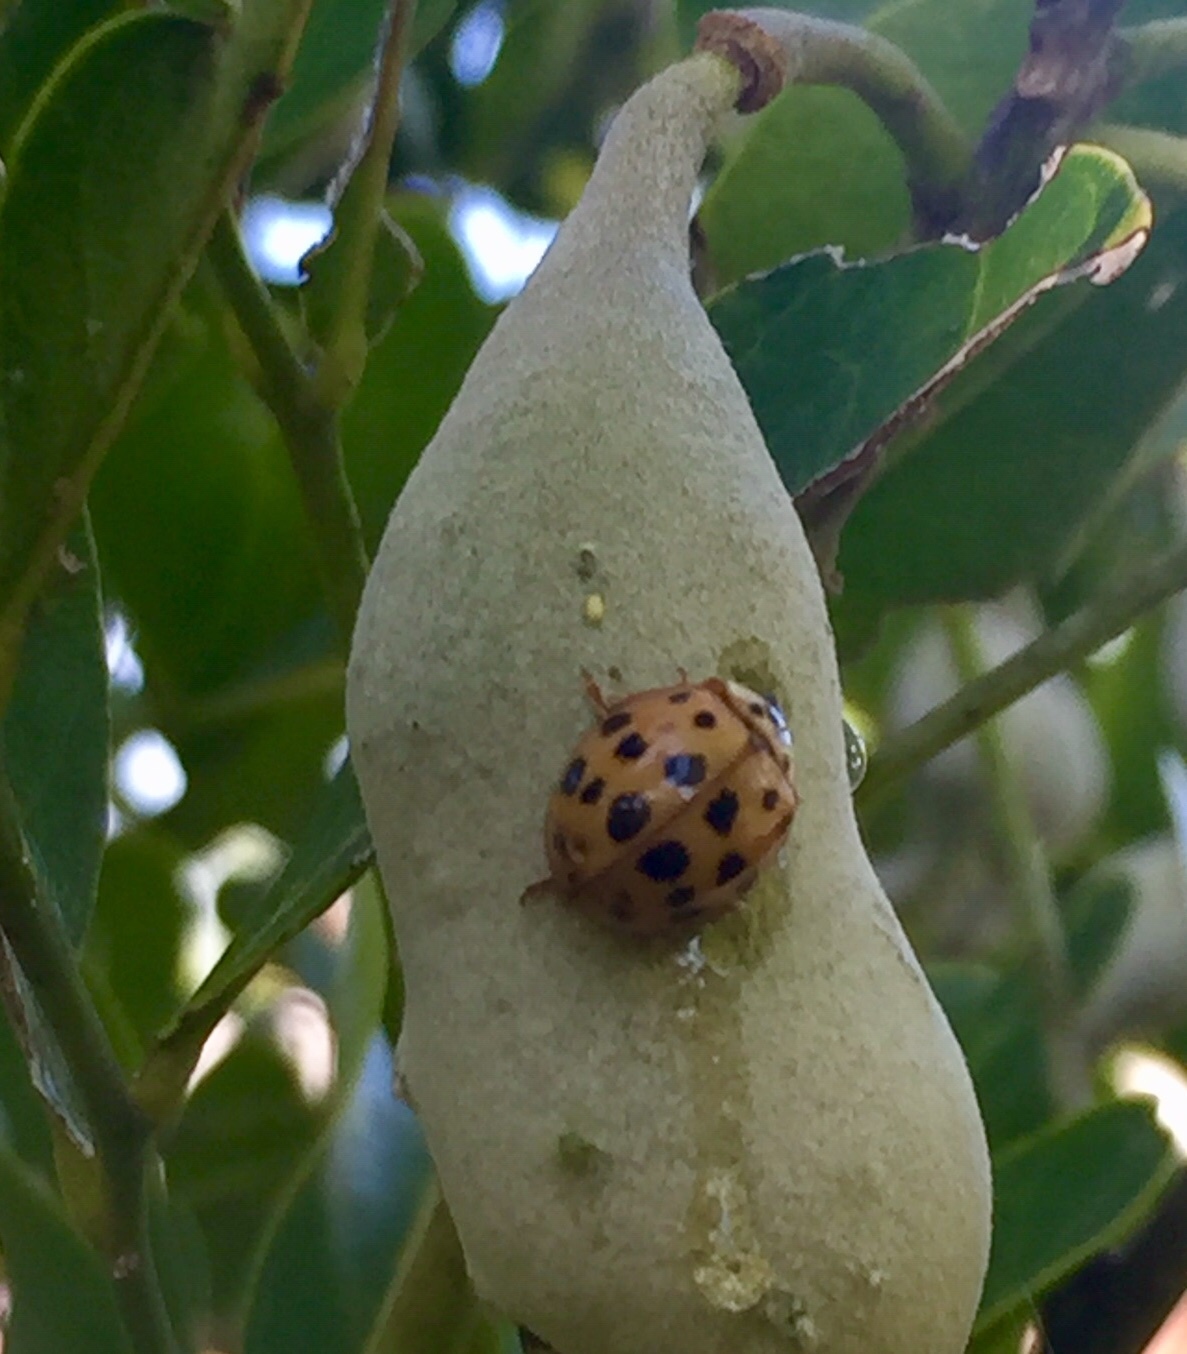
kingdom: Animalia
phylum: Arthropoda
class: Insecta
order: Coleoptera
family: Coccinellidae
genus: Harmonia
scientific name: Harmonia axyridis
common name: Harlequin ladybird
